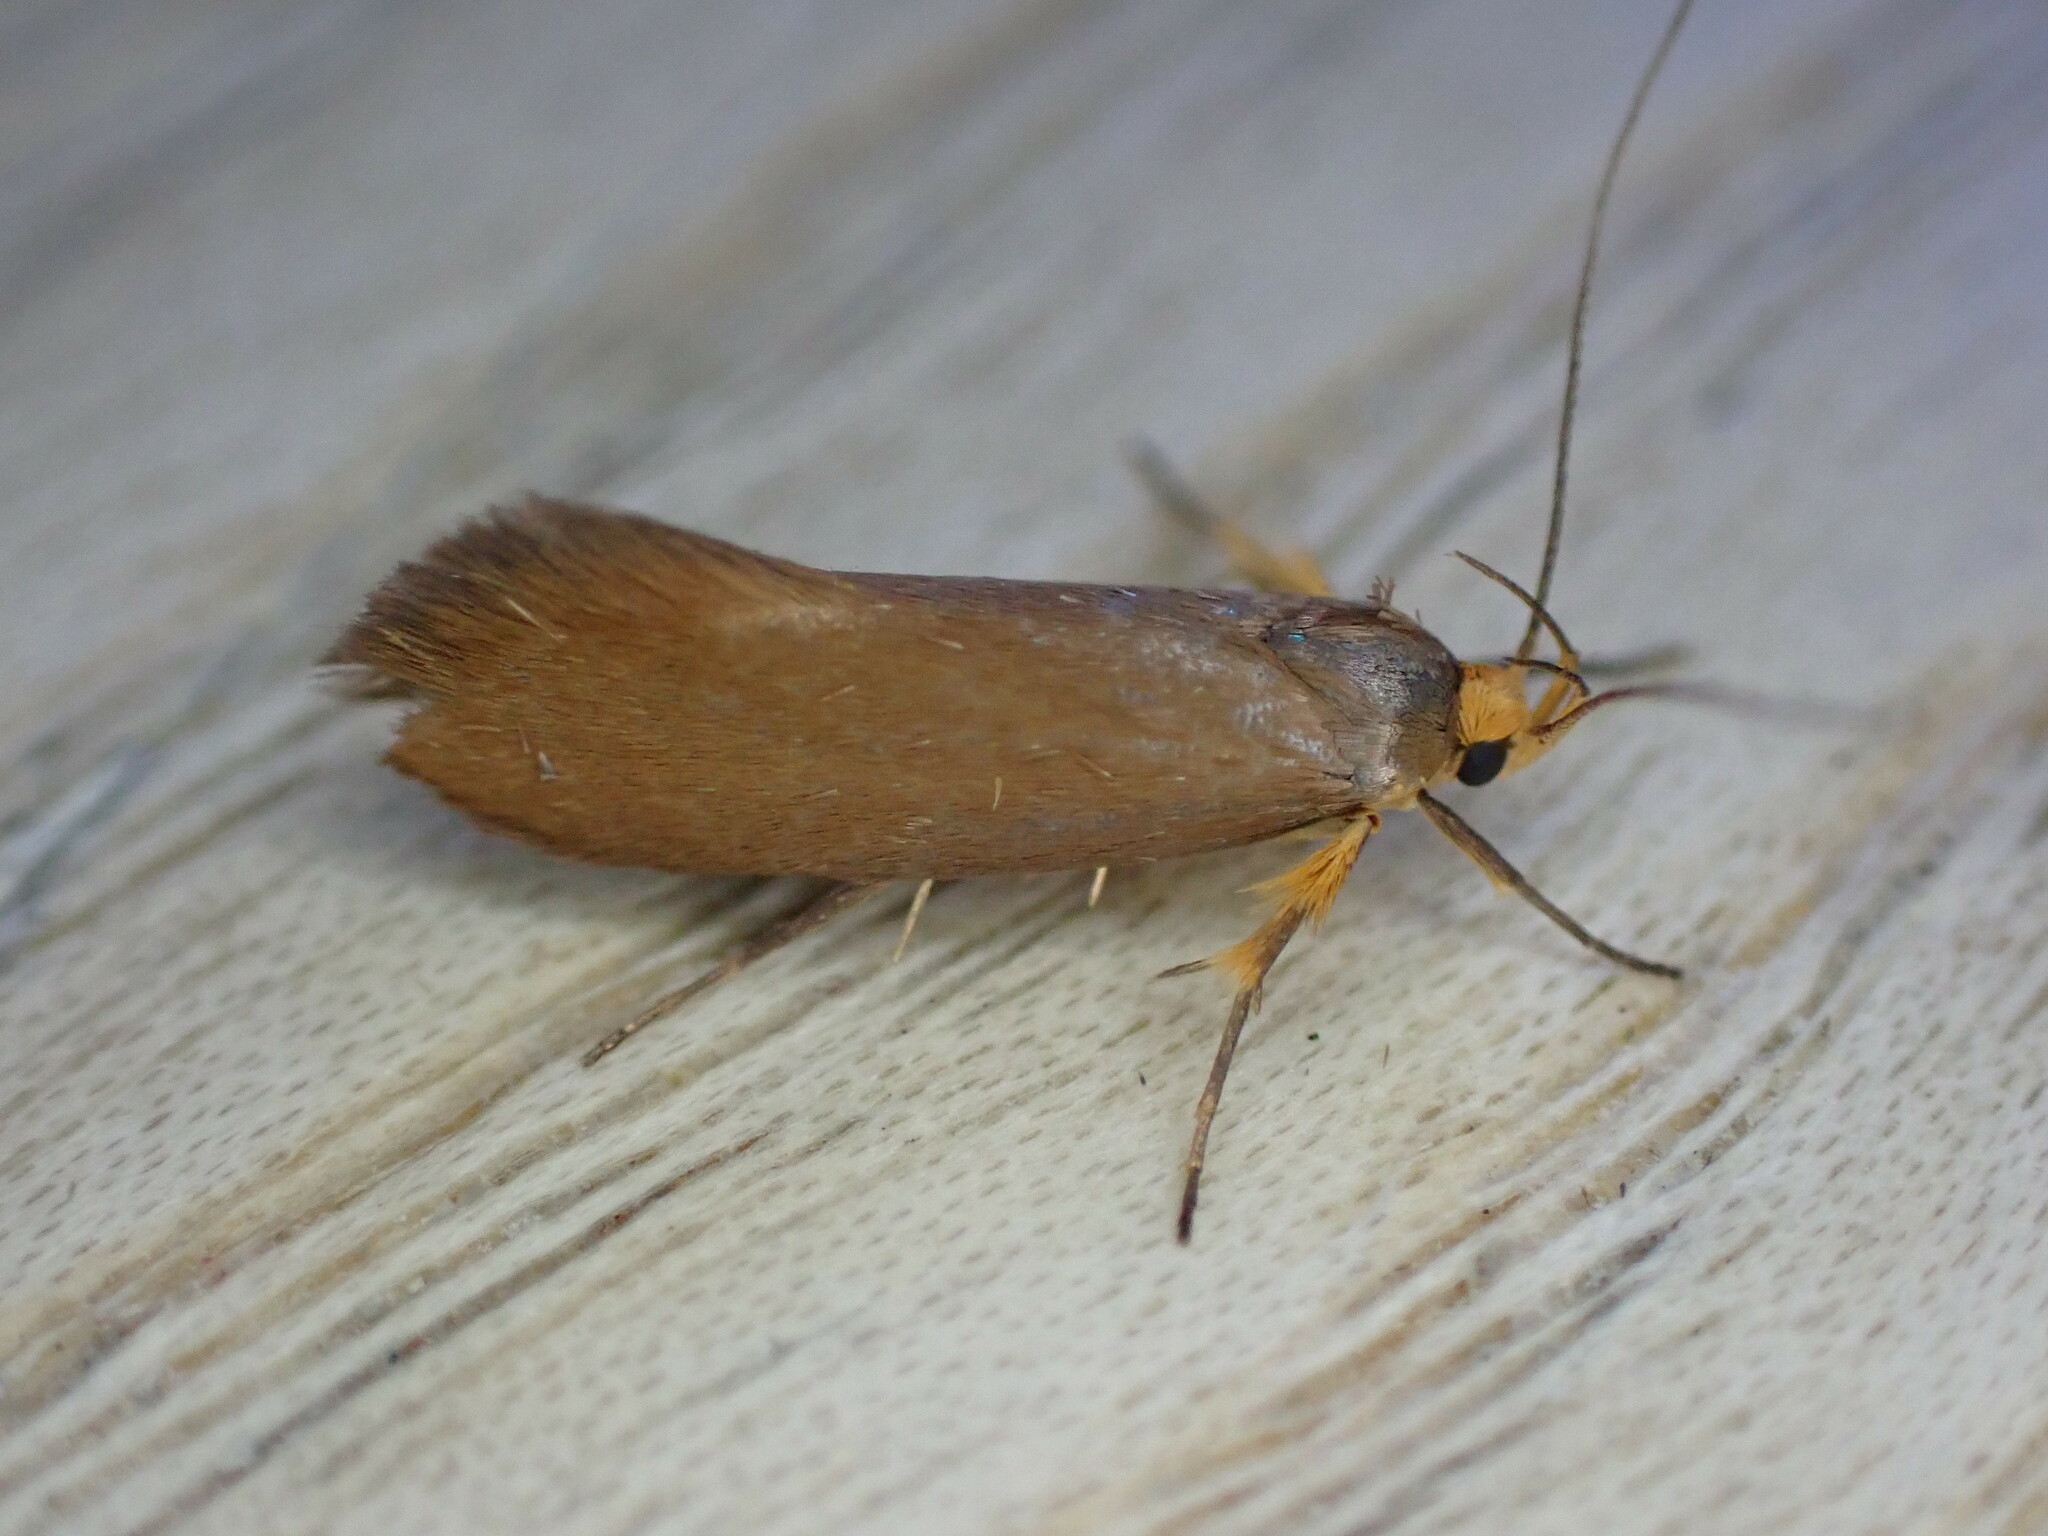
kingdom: Animalia
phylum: Arthropoda
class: Insecta
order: Lepidoptera
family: Oecophoridae
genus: Borkhausenia
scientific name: Borkhausenia Crassa unitella
